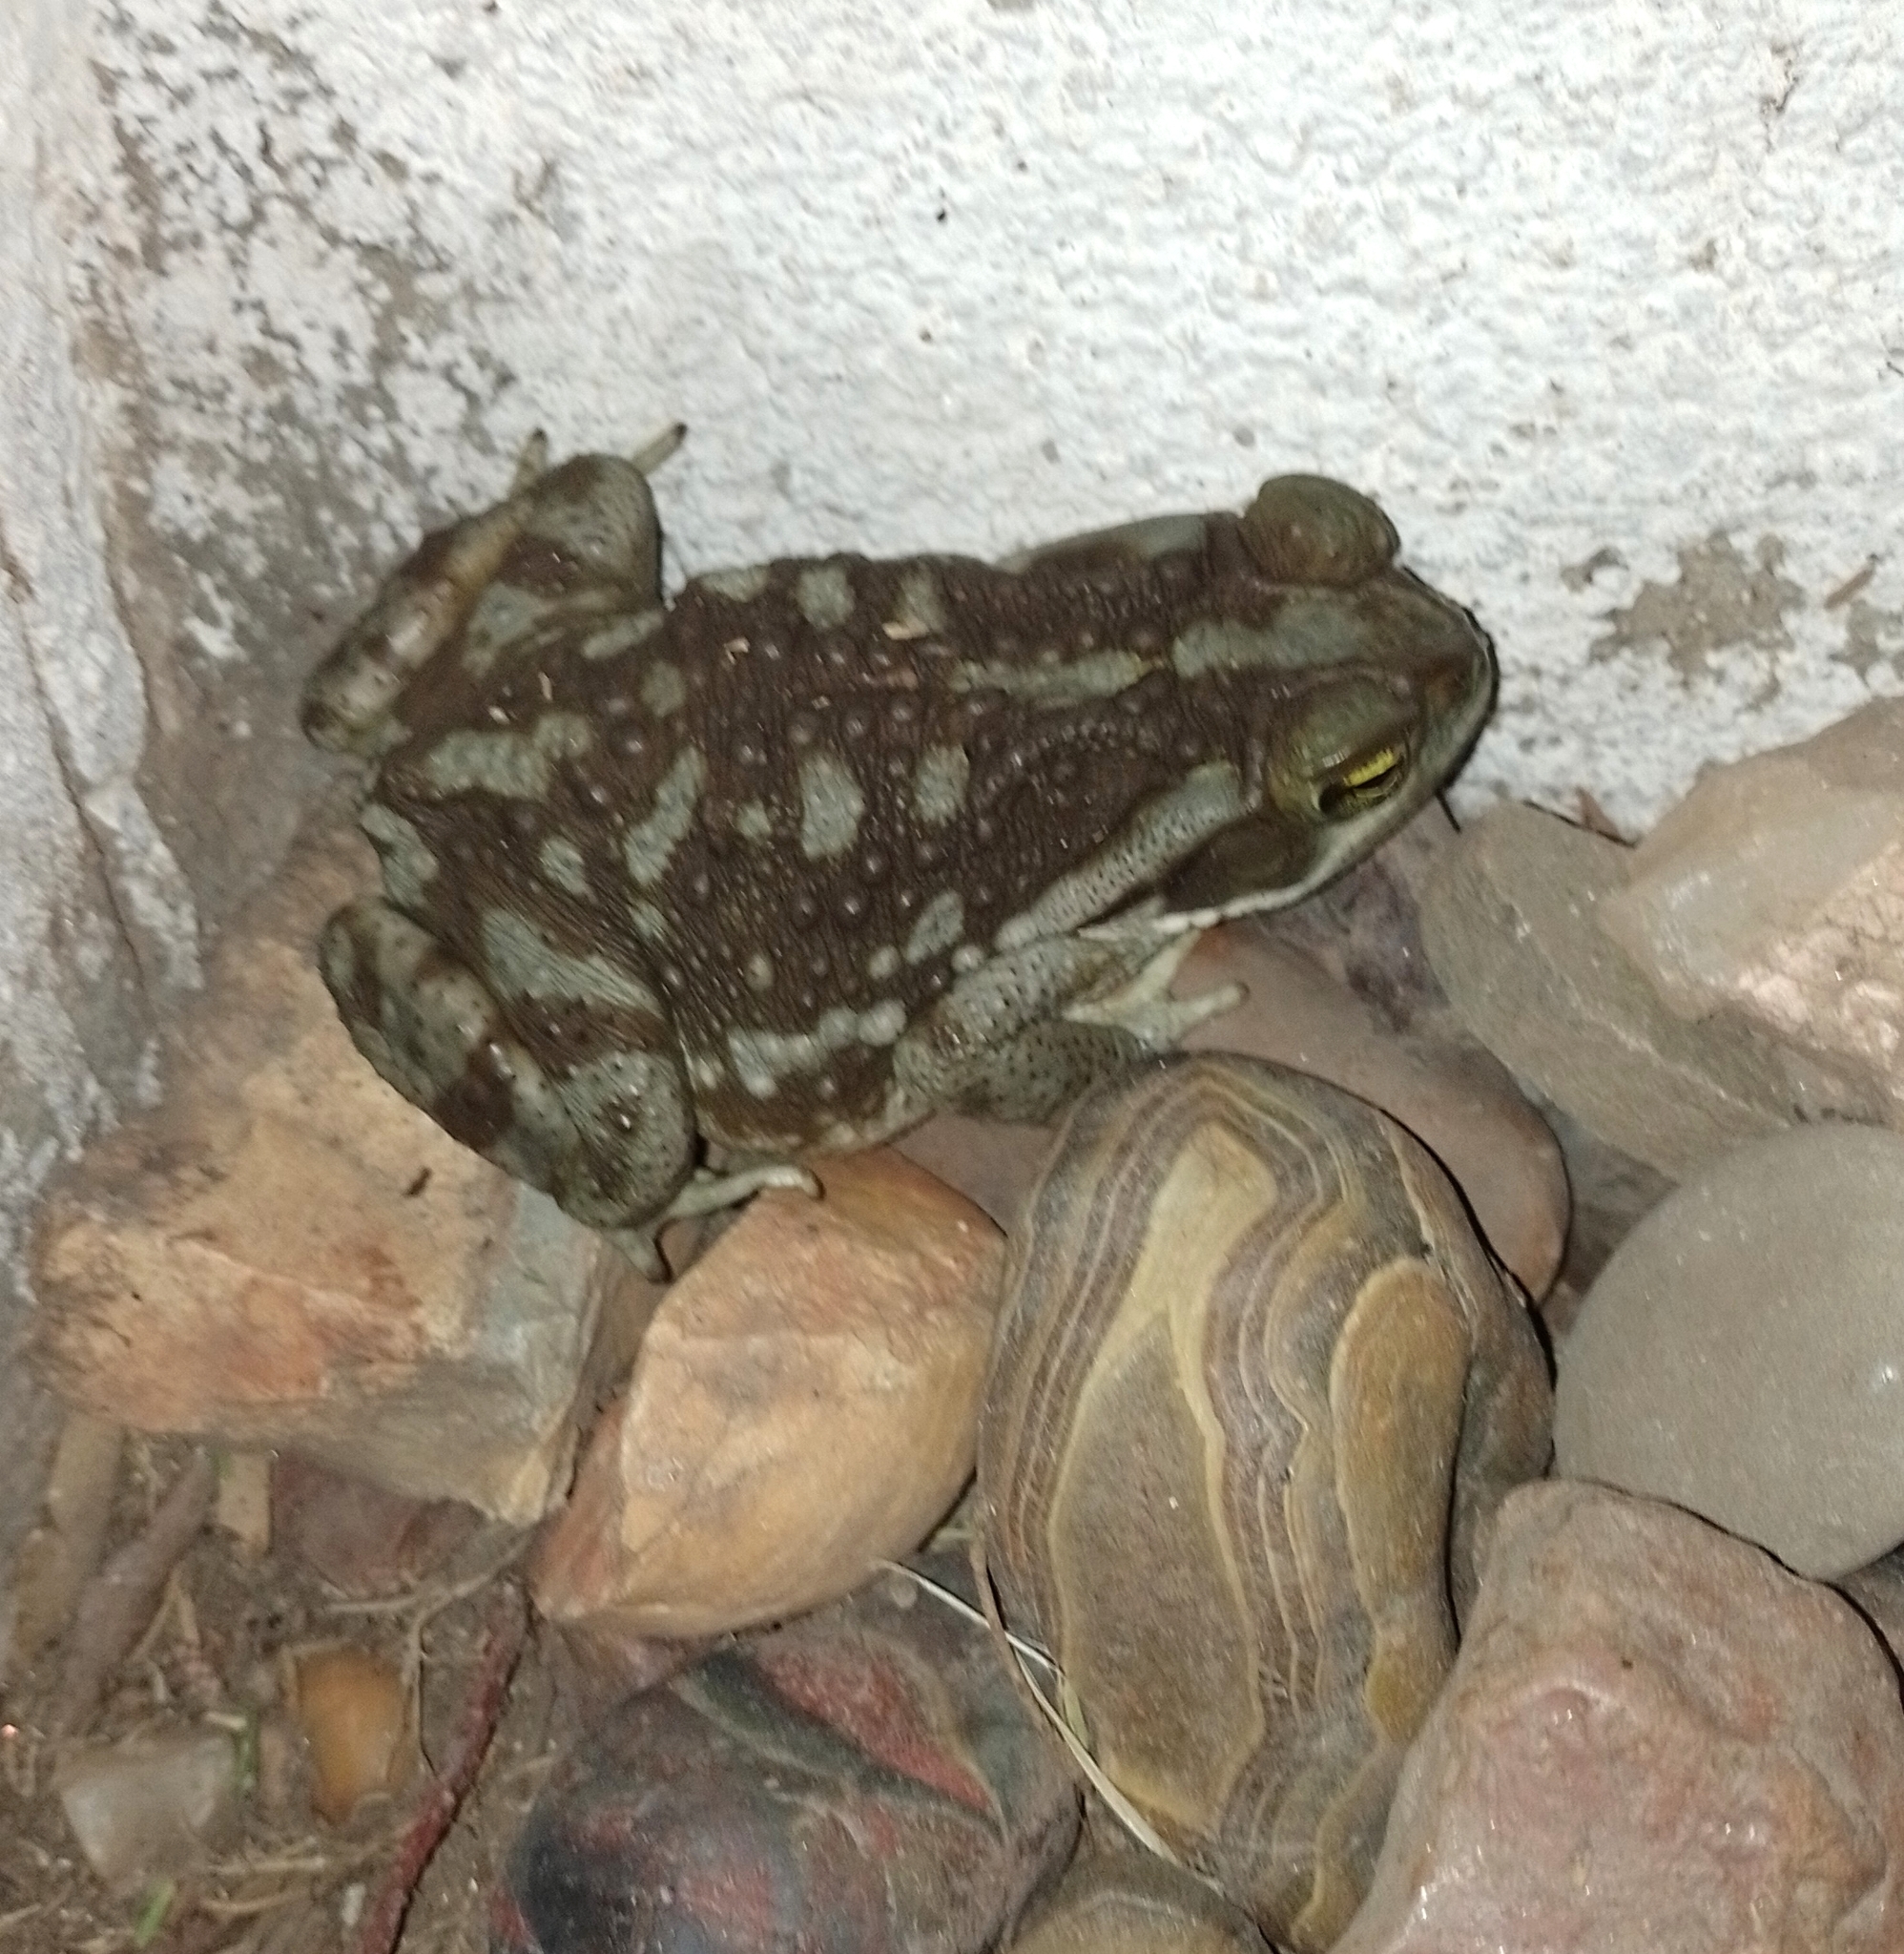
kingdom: Animalia
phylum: Chordata
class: Amphibia
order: Anura
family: Bufonidae
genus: Rhinella
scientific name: Rhinella arenarum
